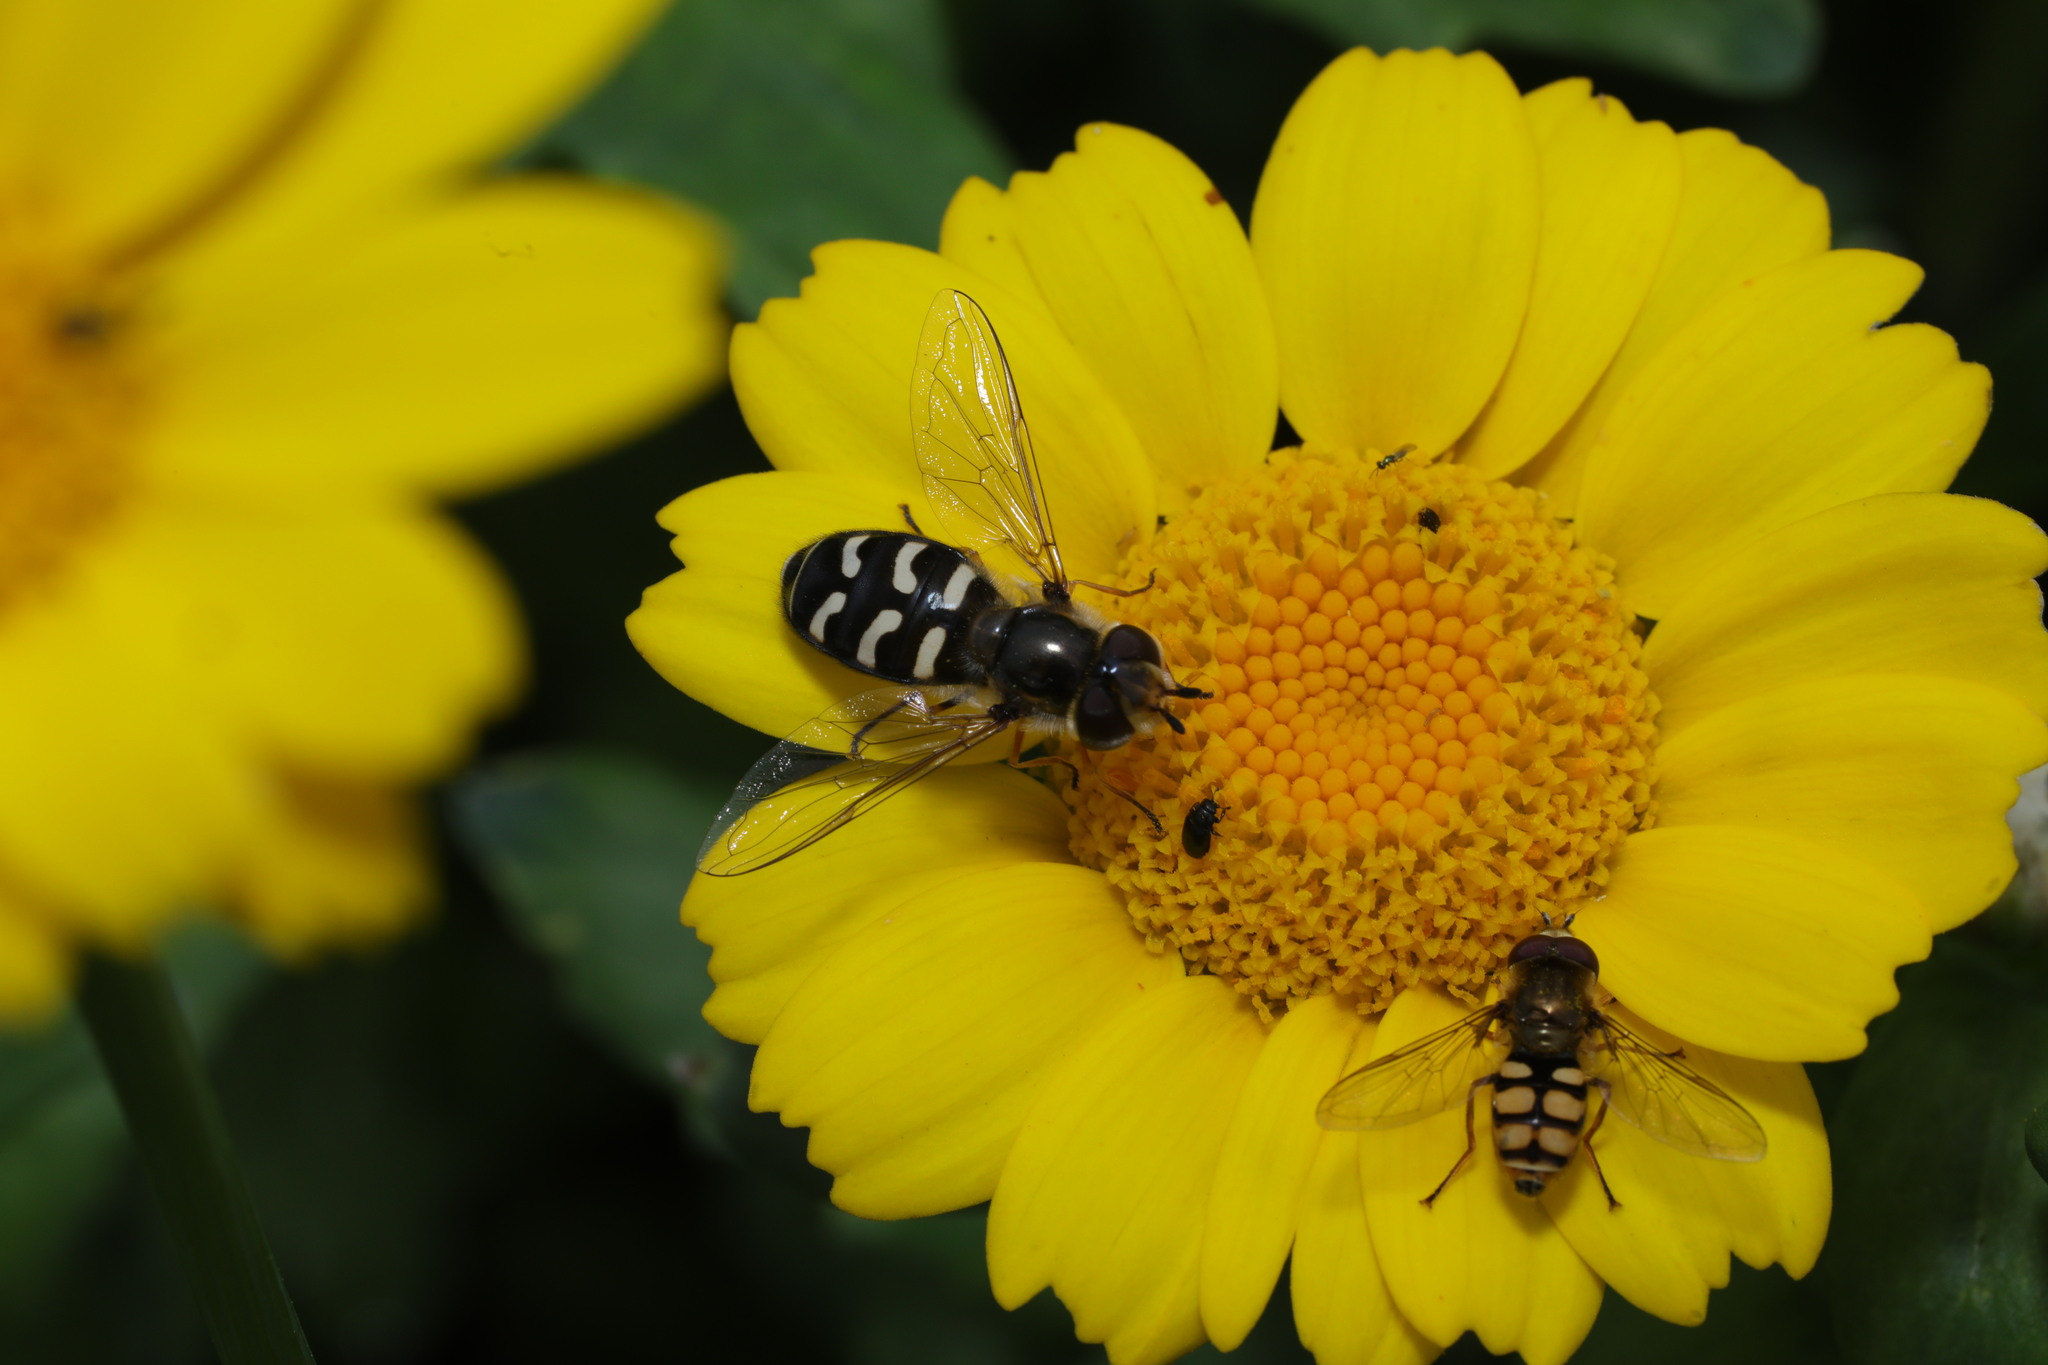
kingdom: Animalia
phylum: Arthropoda
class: Insecta
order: Diptera
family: Syrphidae
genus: Eupeodes
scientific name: Eupeodes corollae
